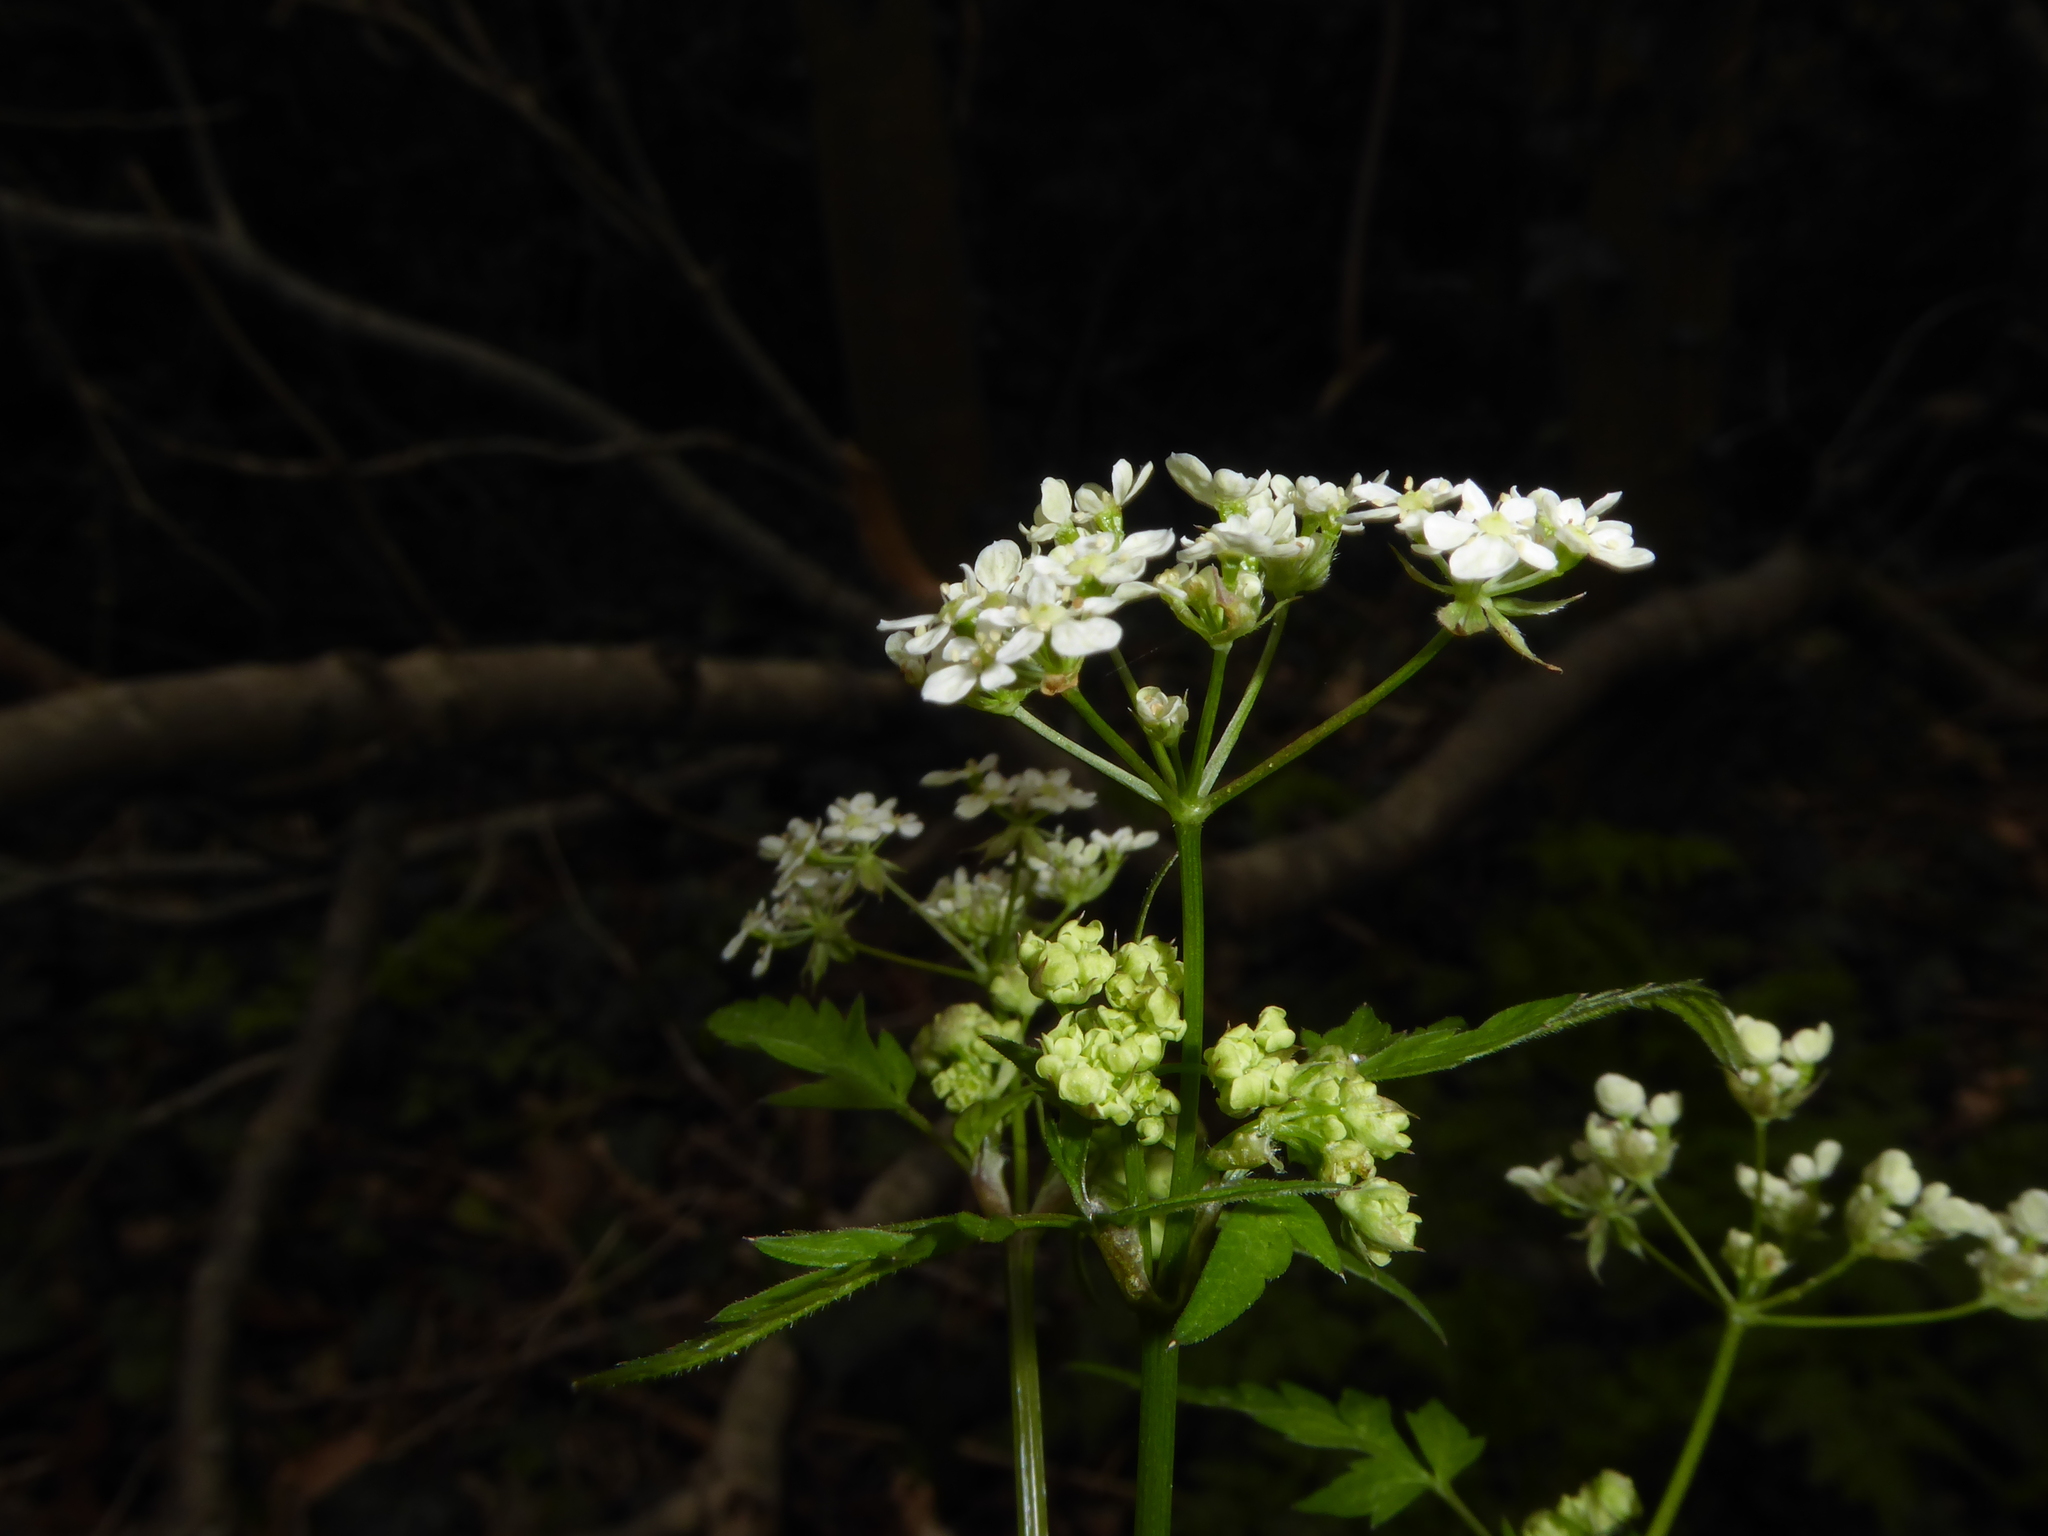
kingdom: Plantae
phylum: Tracheophyta
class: Magnoliopsida
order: Apiales
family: Apiaceae
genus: Anthriscus
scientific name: Anthriscus sylvestris
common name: Cow parsley
